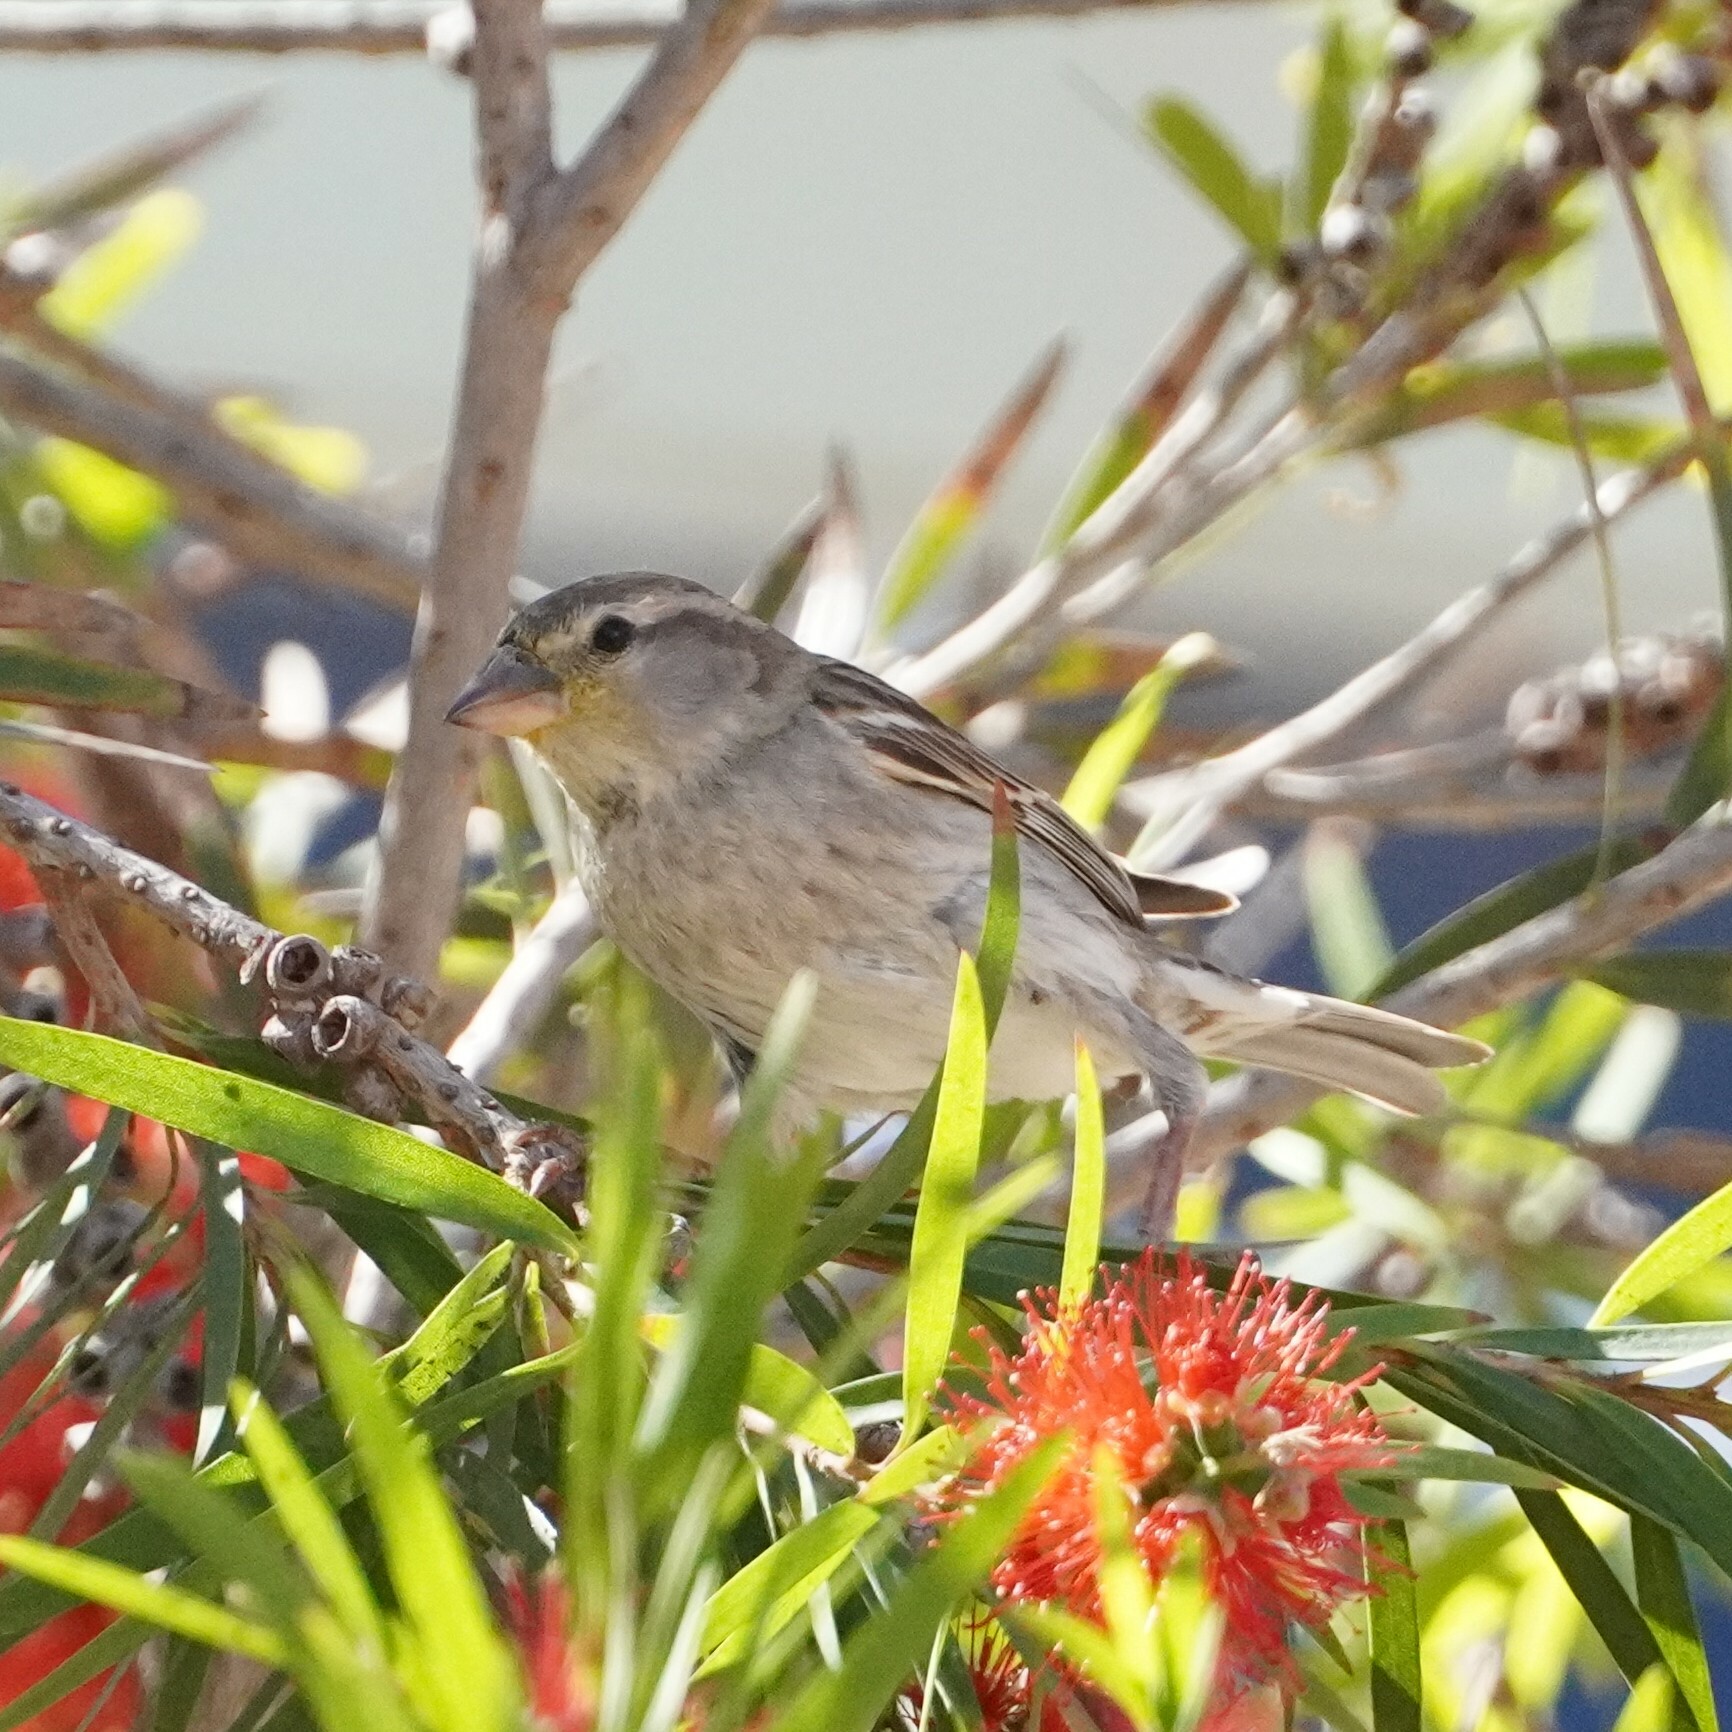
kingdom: Animalia
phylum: Chordata
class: Aves
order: Passeriformes
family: Passeridae
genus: Passer
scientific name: Passer hispaniolensis
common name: Spanish sparrow
